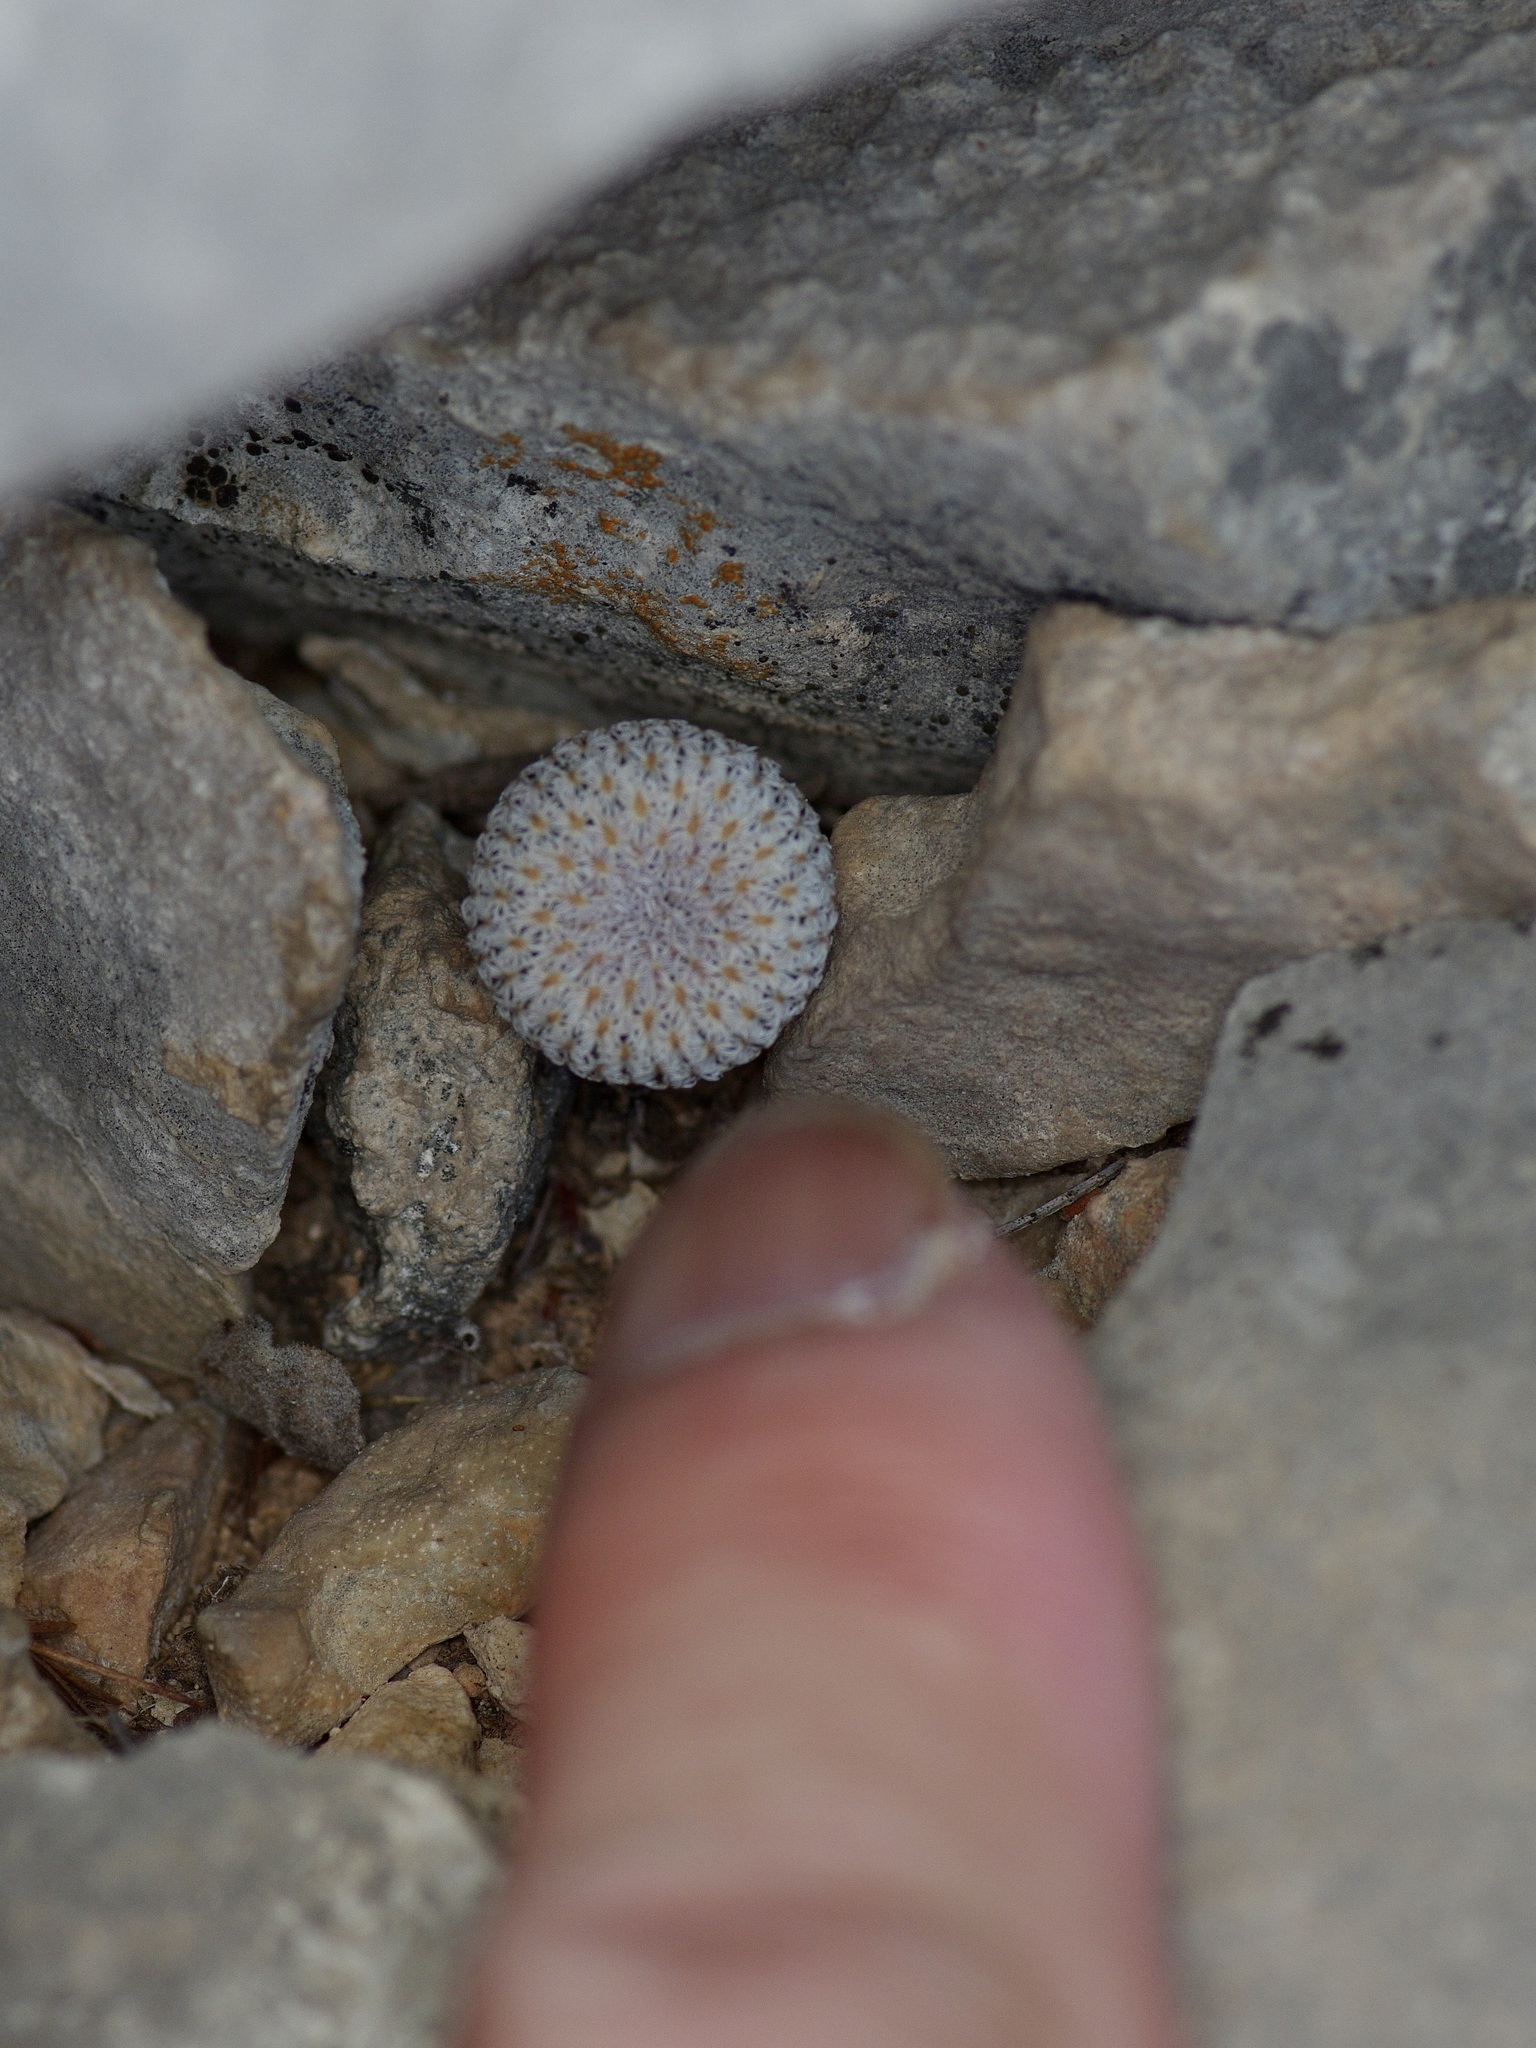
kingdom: Plantae
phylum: Tracheophyta
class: Magnoliopsida
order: Caryophyllales
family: Cactaceae
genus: Epithelantha
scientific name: Epithelantha micromeris
